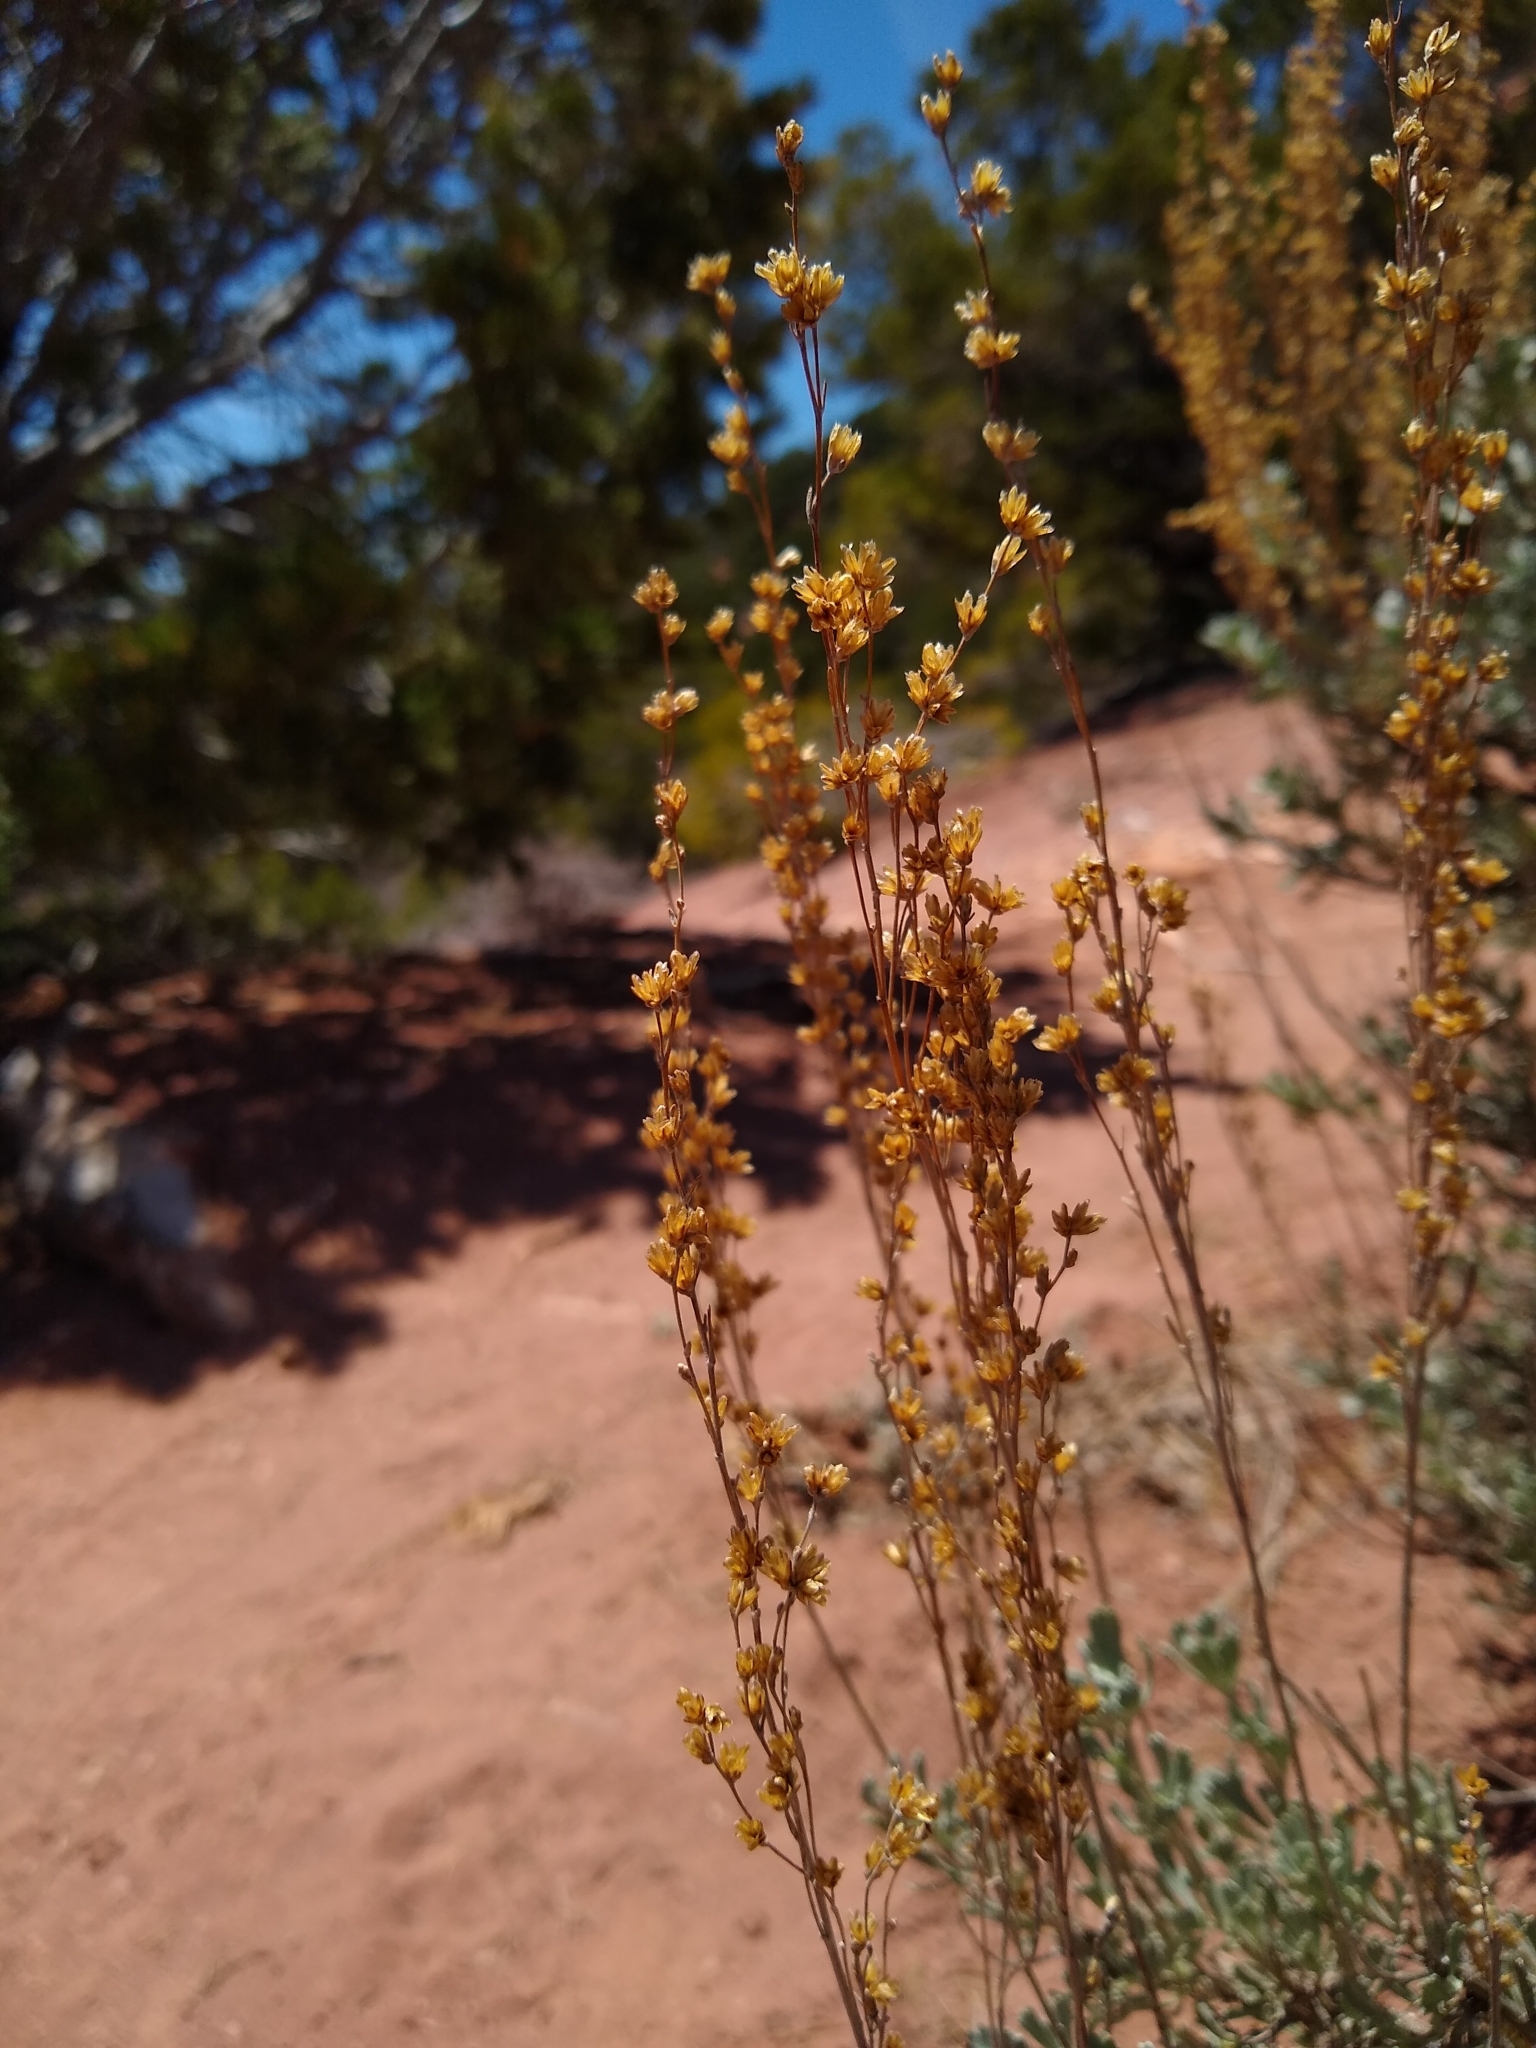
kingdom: Plantae
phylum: Tracheophyta
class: Magnoliopsida
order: Asterales
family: Asteraceae
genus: Artemisia
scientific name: Artemisia tridentata
